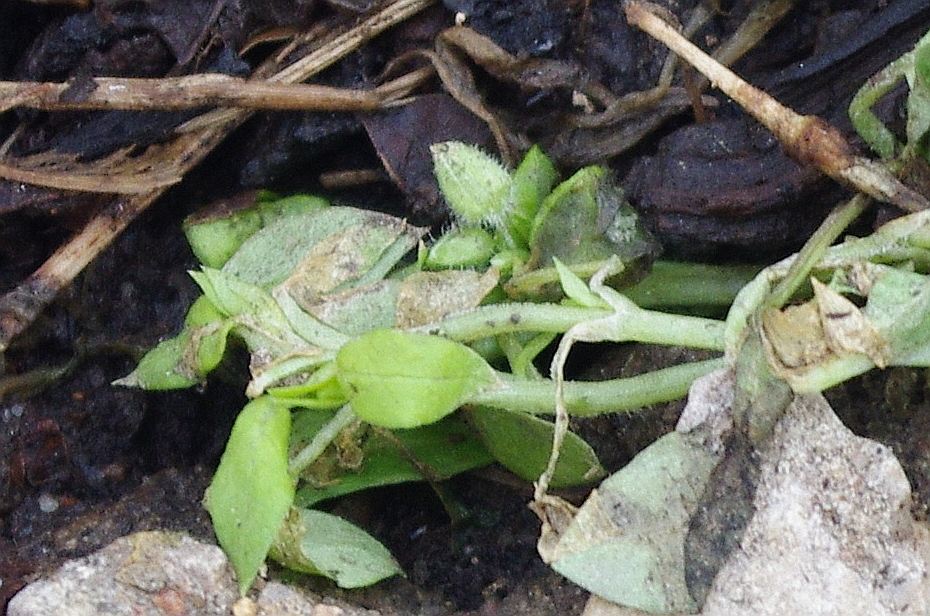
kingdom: Plantae
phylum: Tracheophyta
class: Magnoliopsida
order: Caryophyllales
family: Caryophyllaceae
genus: Stellaria
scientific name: Stellaria media
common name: Common chickweed
